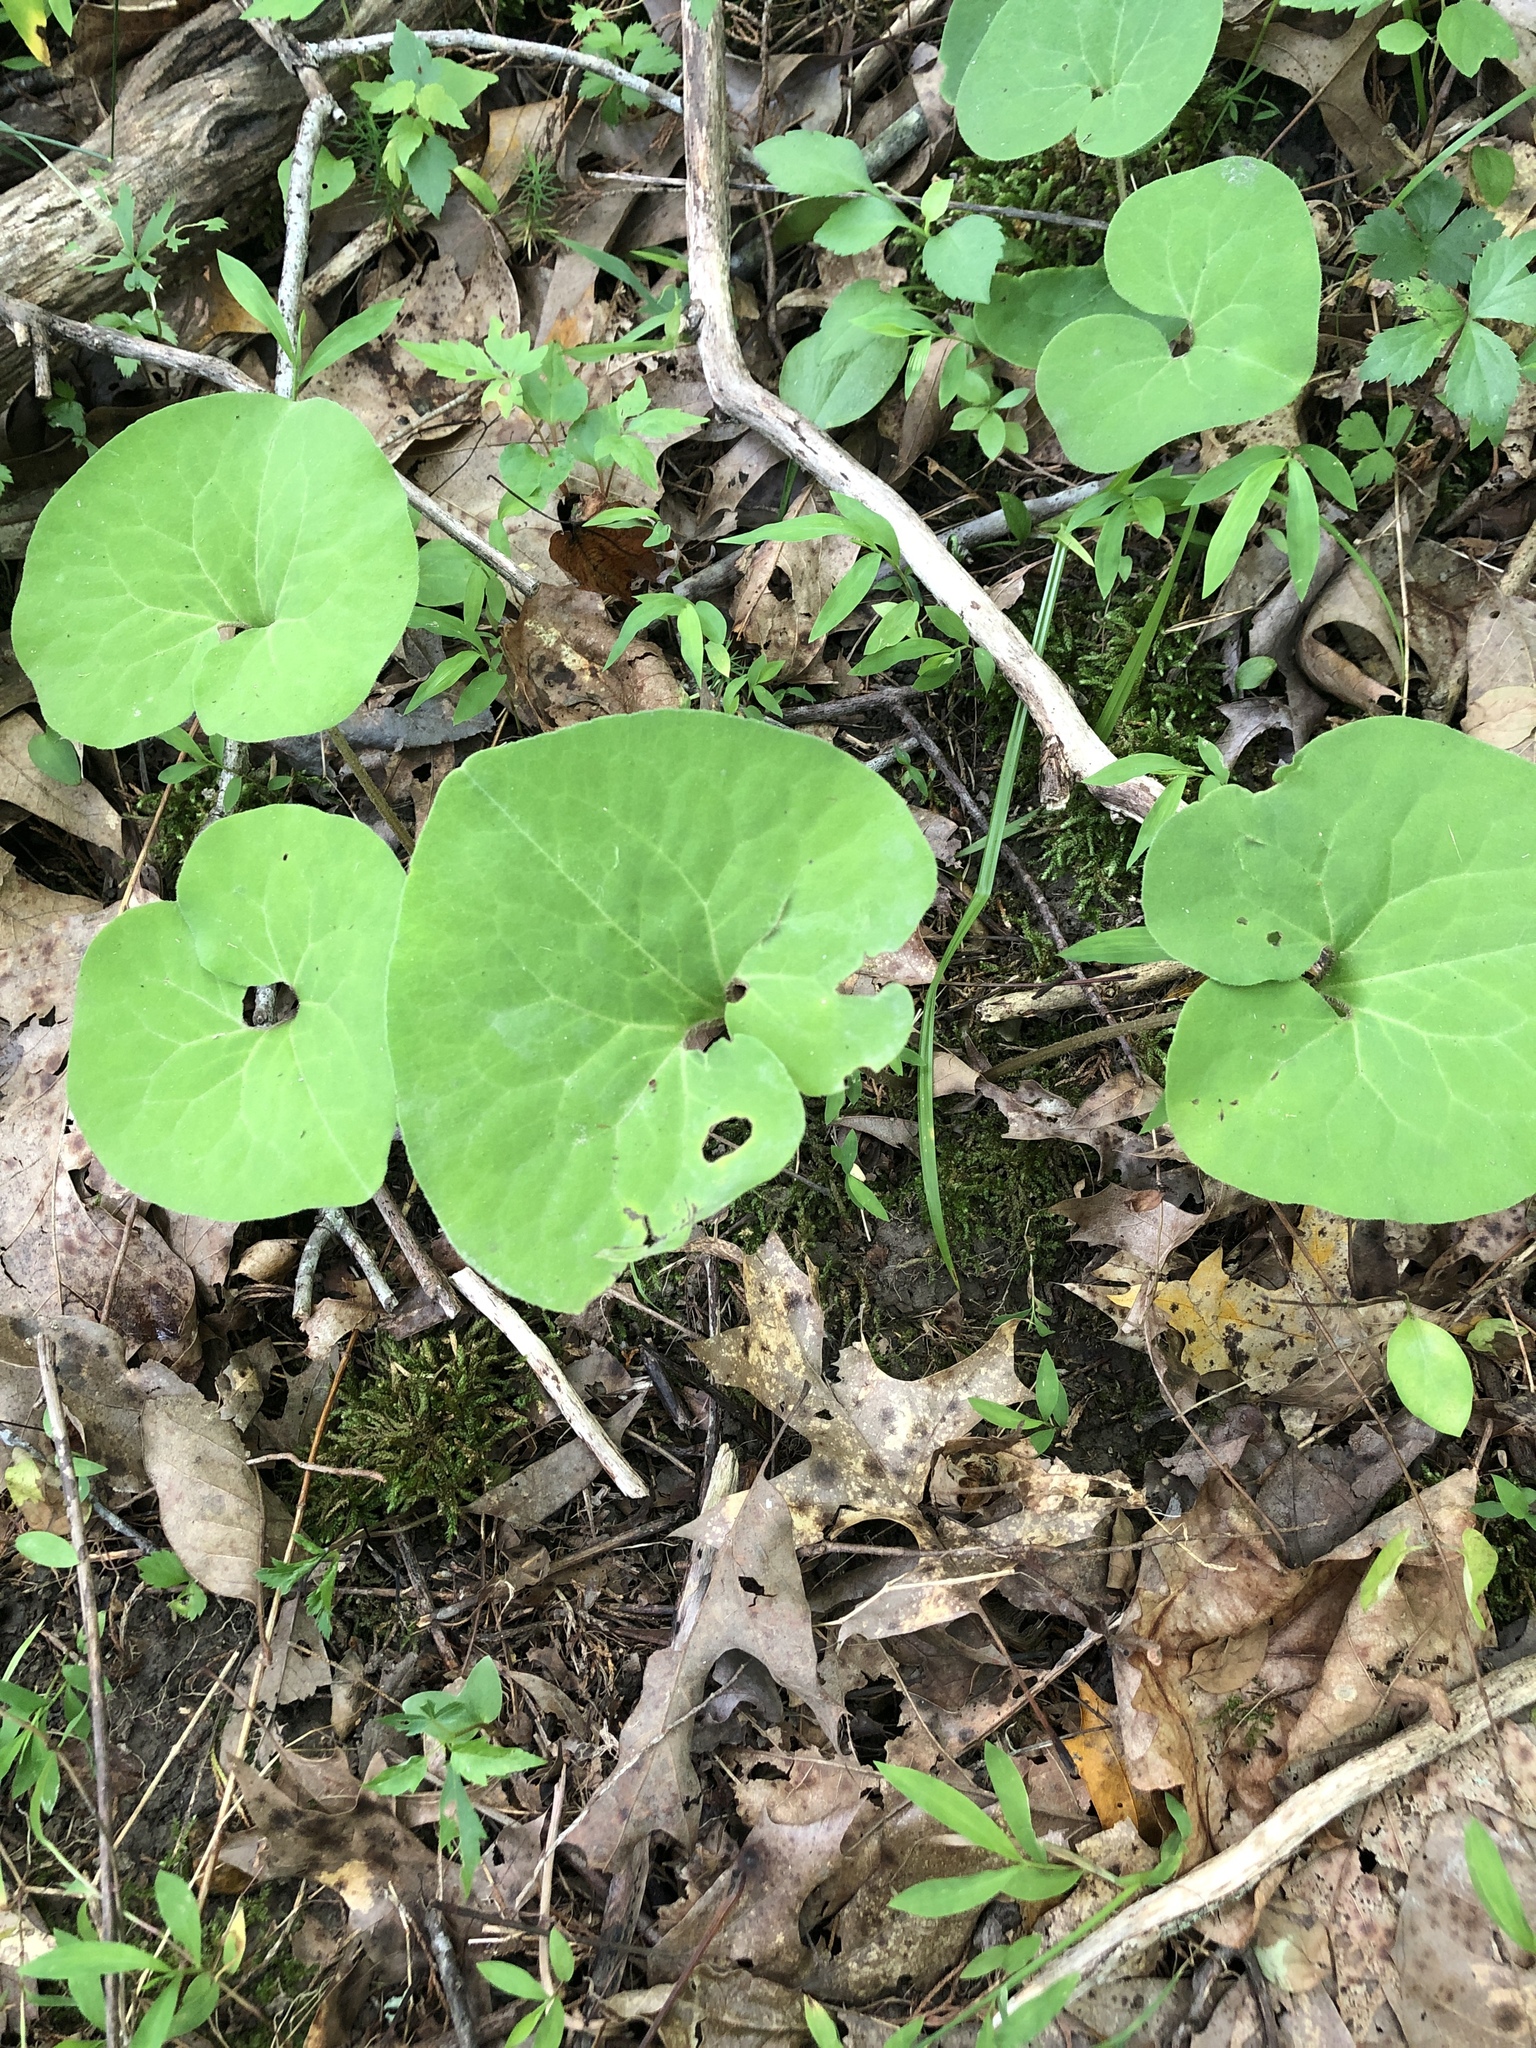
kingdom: Plantae
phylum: Tracheophyta
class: Magnoliopsida
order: Piperales
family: Aristolochiaceae
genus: Asarum
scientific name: Asarum canadense
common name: Wild ginger
